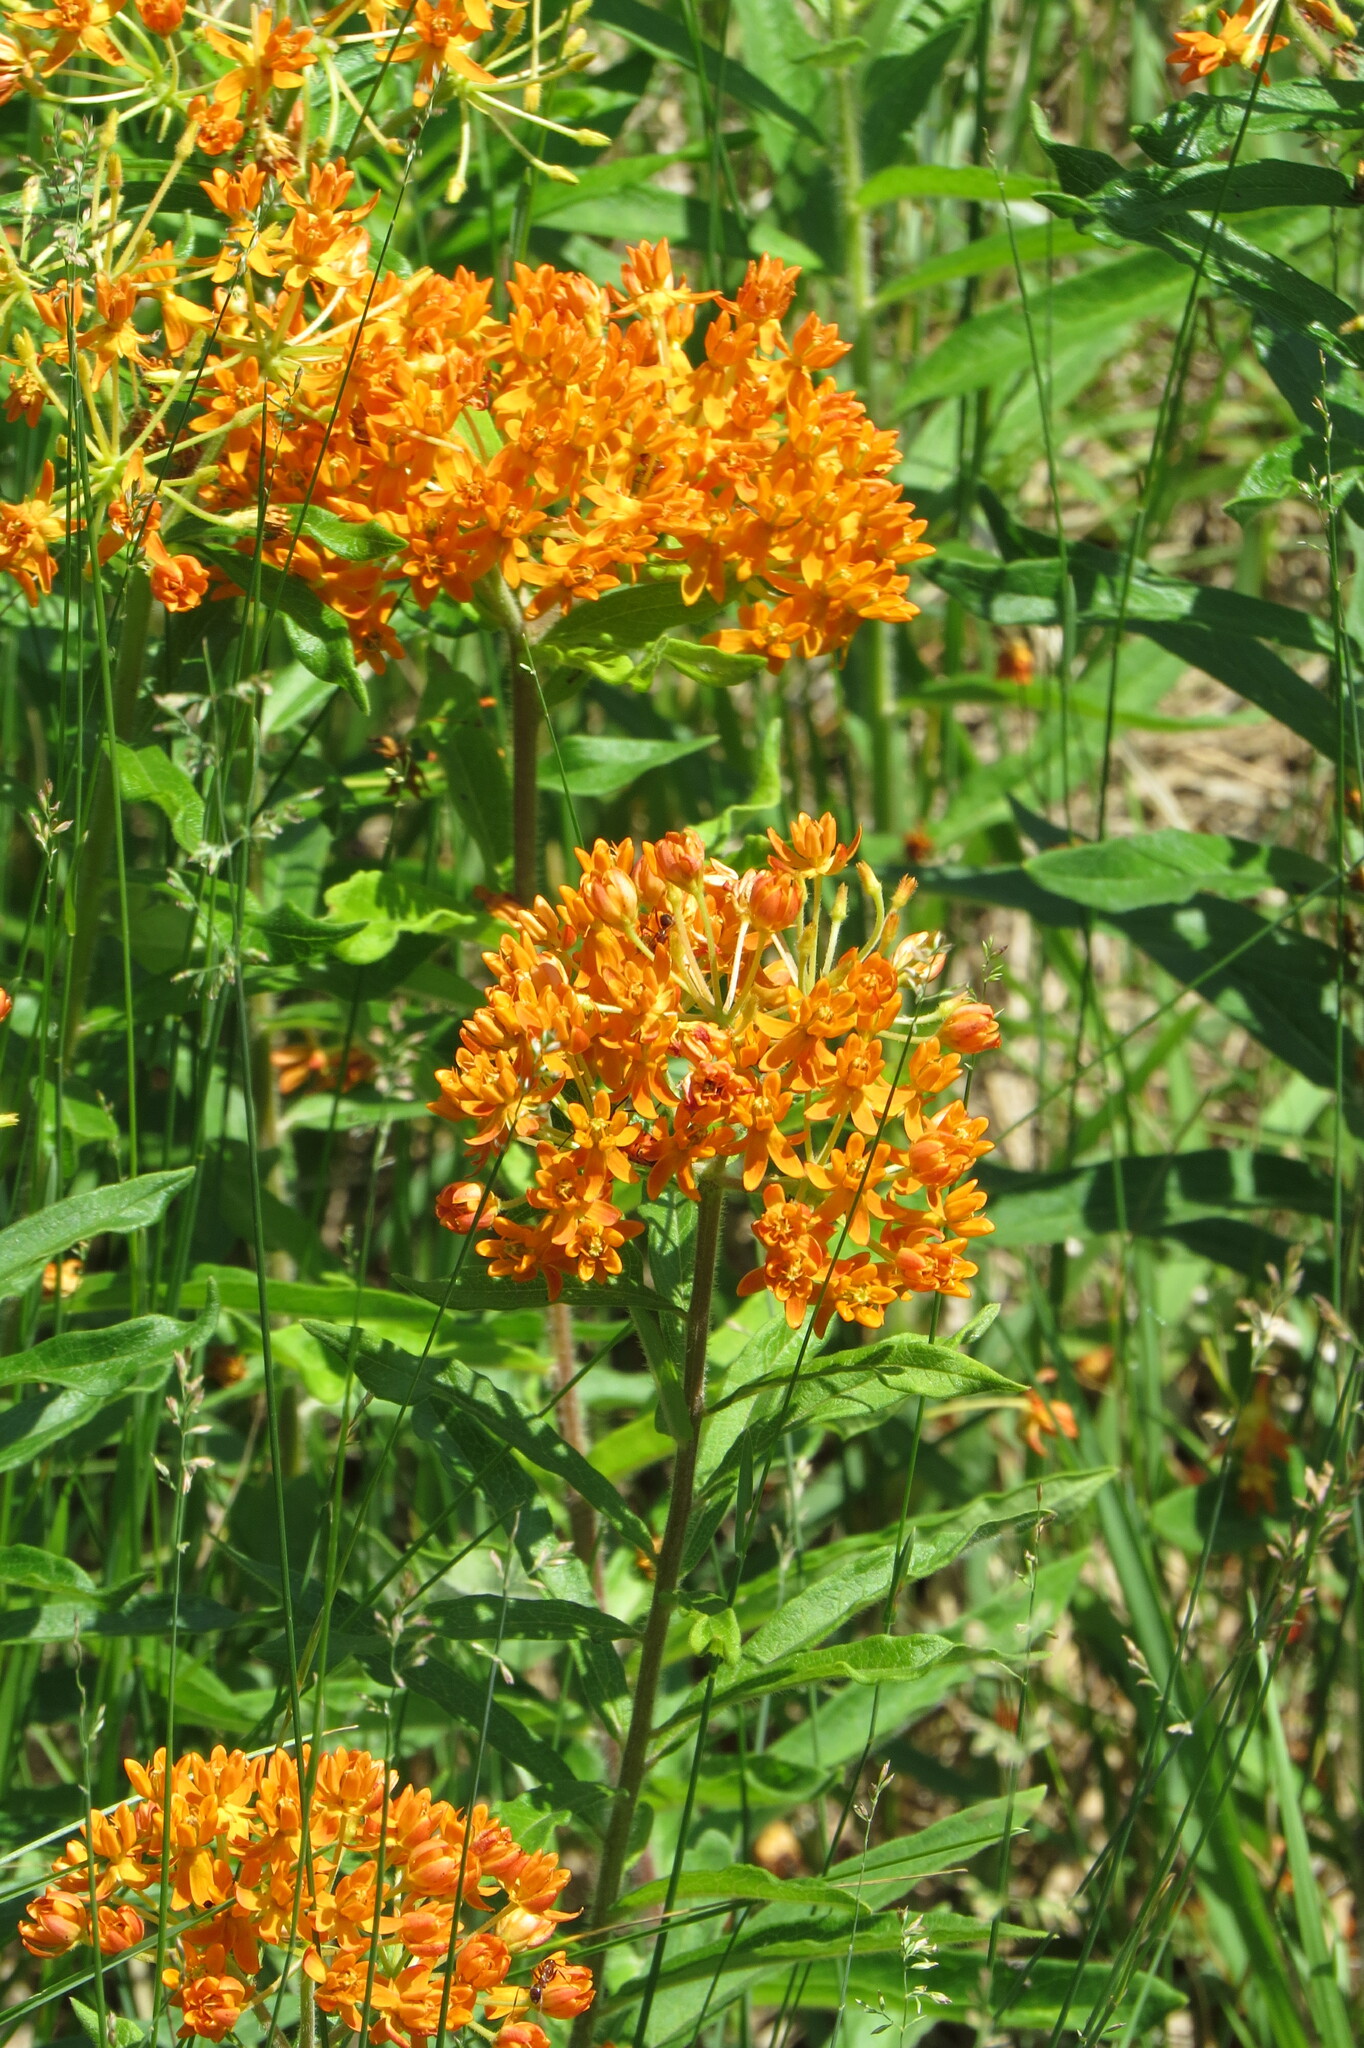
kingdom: Plantae
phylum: Tracheophyta
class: Magnoliopsida
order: Gentianales
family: Apocynaceae
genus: Asclepias
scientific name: Asclepias tuberosa
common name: Butterfly milkweed
